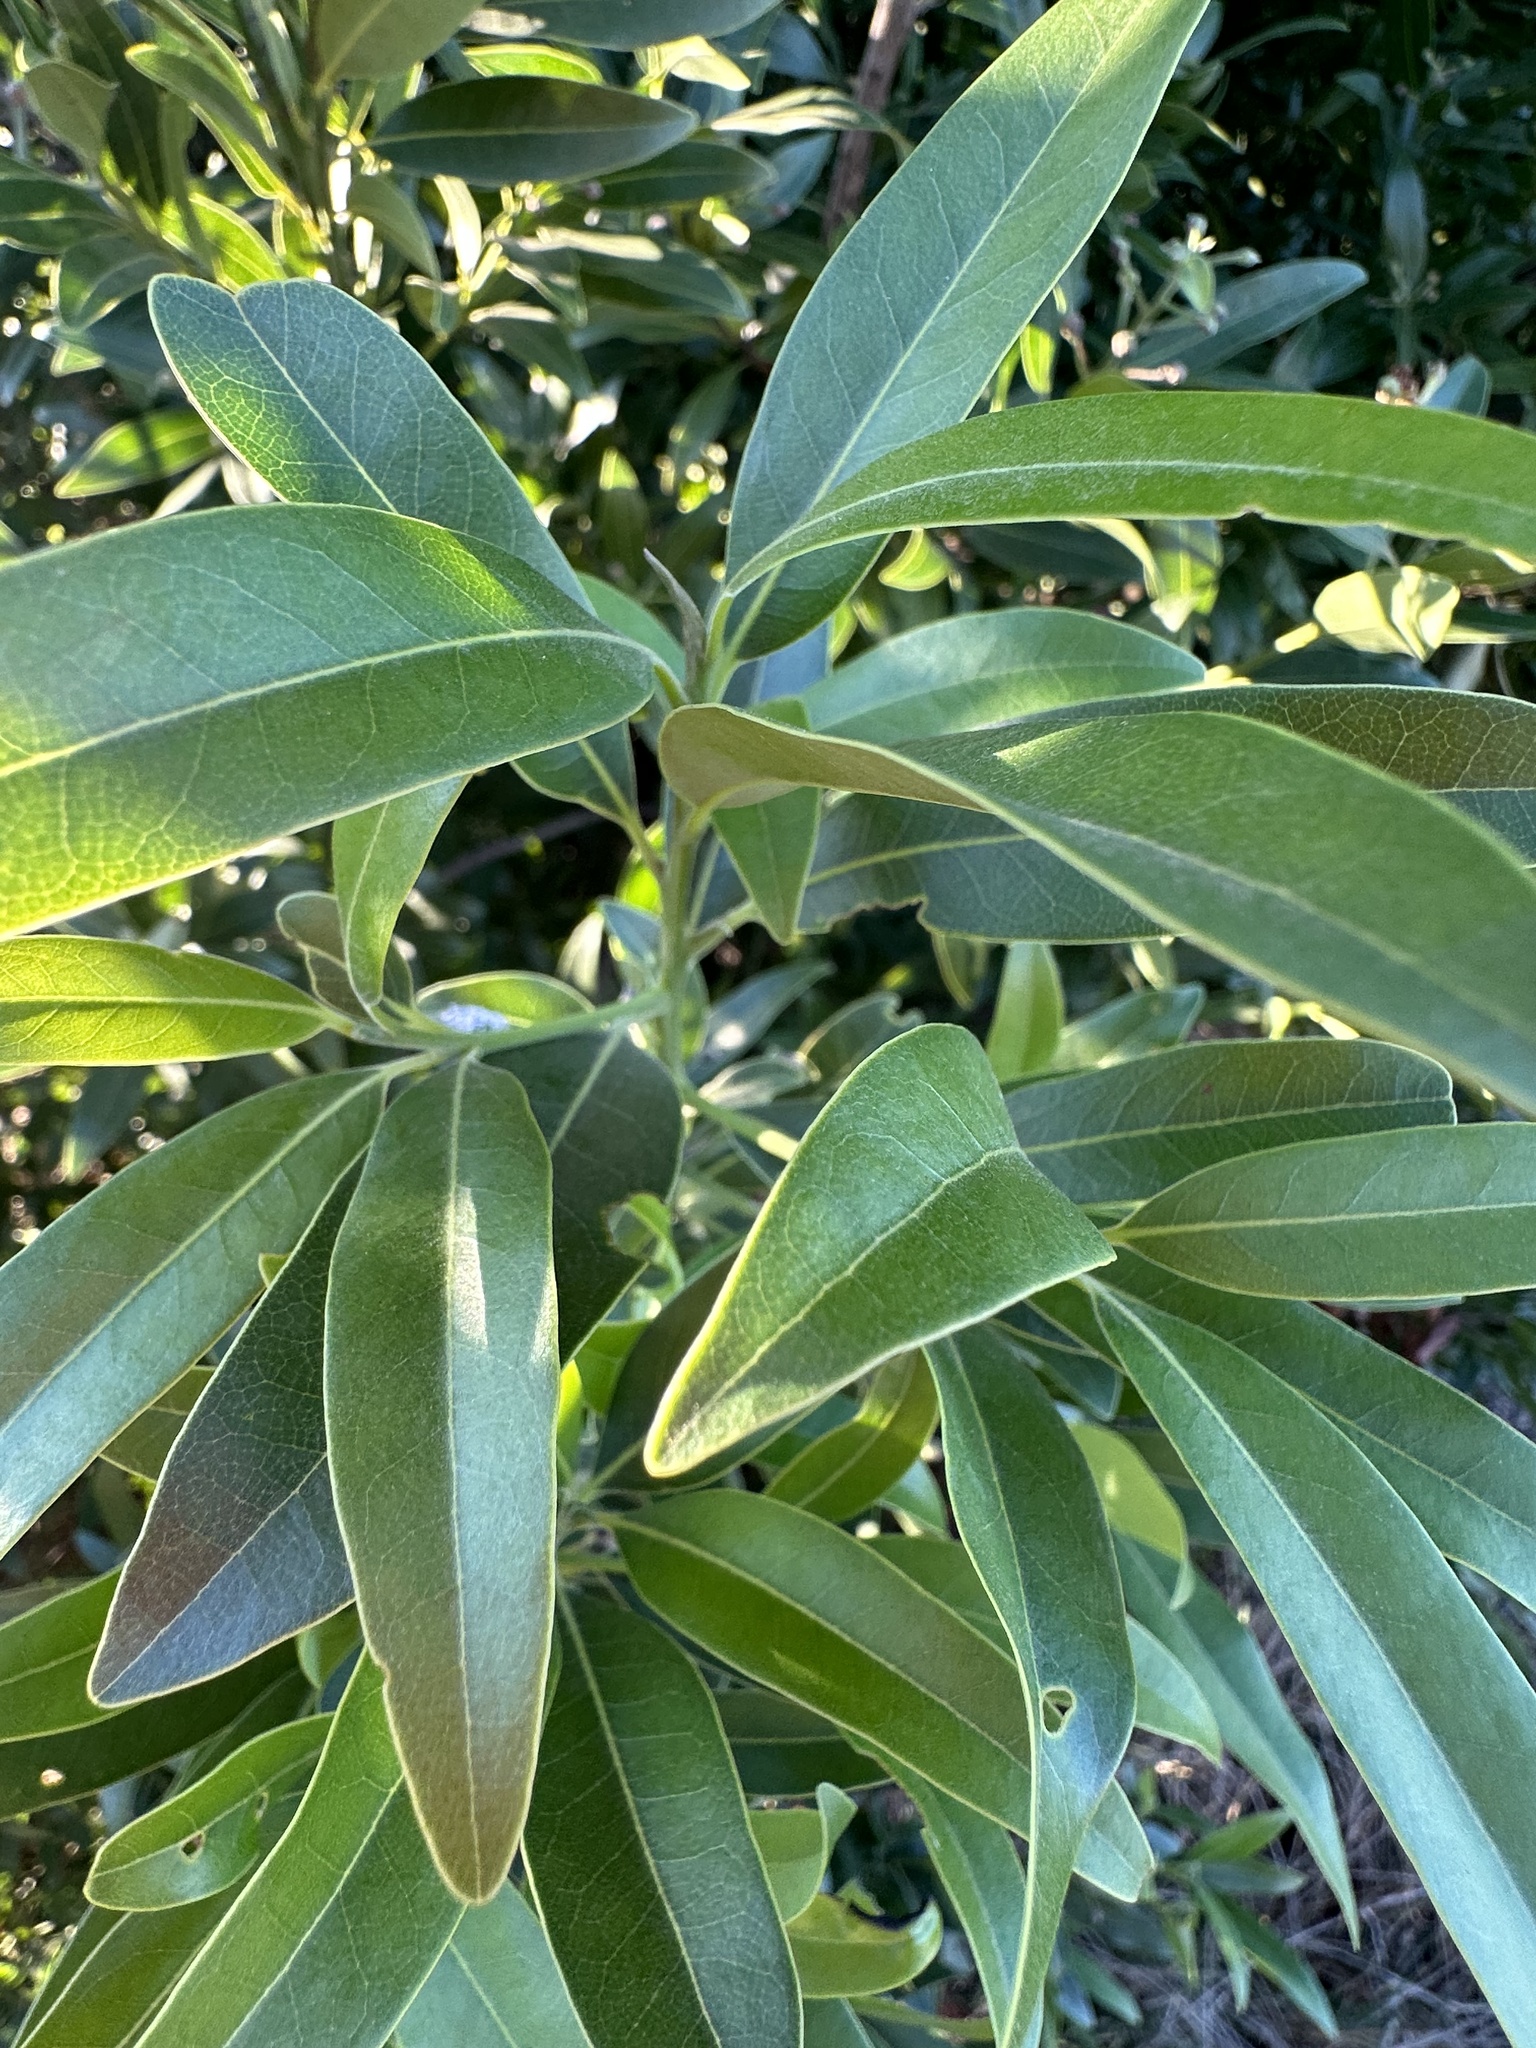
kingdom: Plantae
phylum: Tracheophyta
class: Magnoliopsida
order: Laurales
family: Lauraceae
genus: Umbellularia
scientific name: Umbellularia californica
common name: California bay
